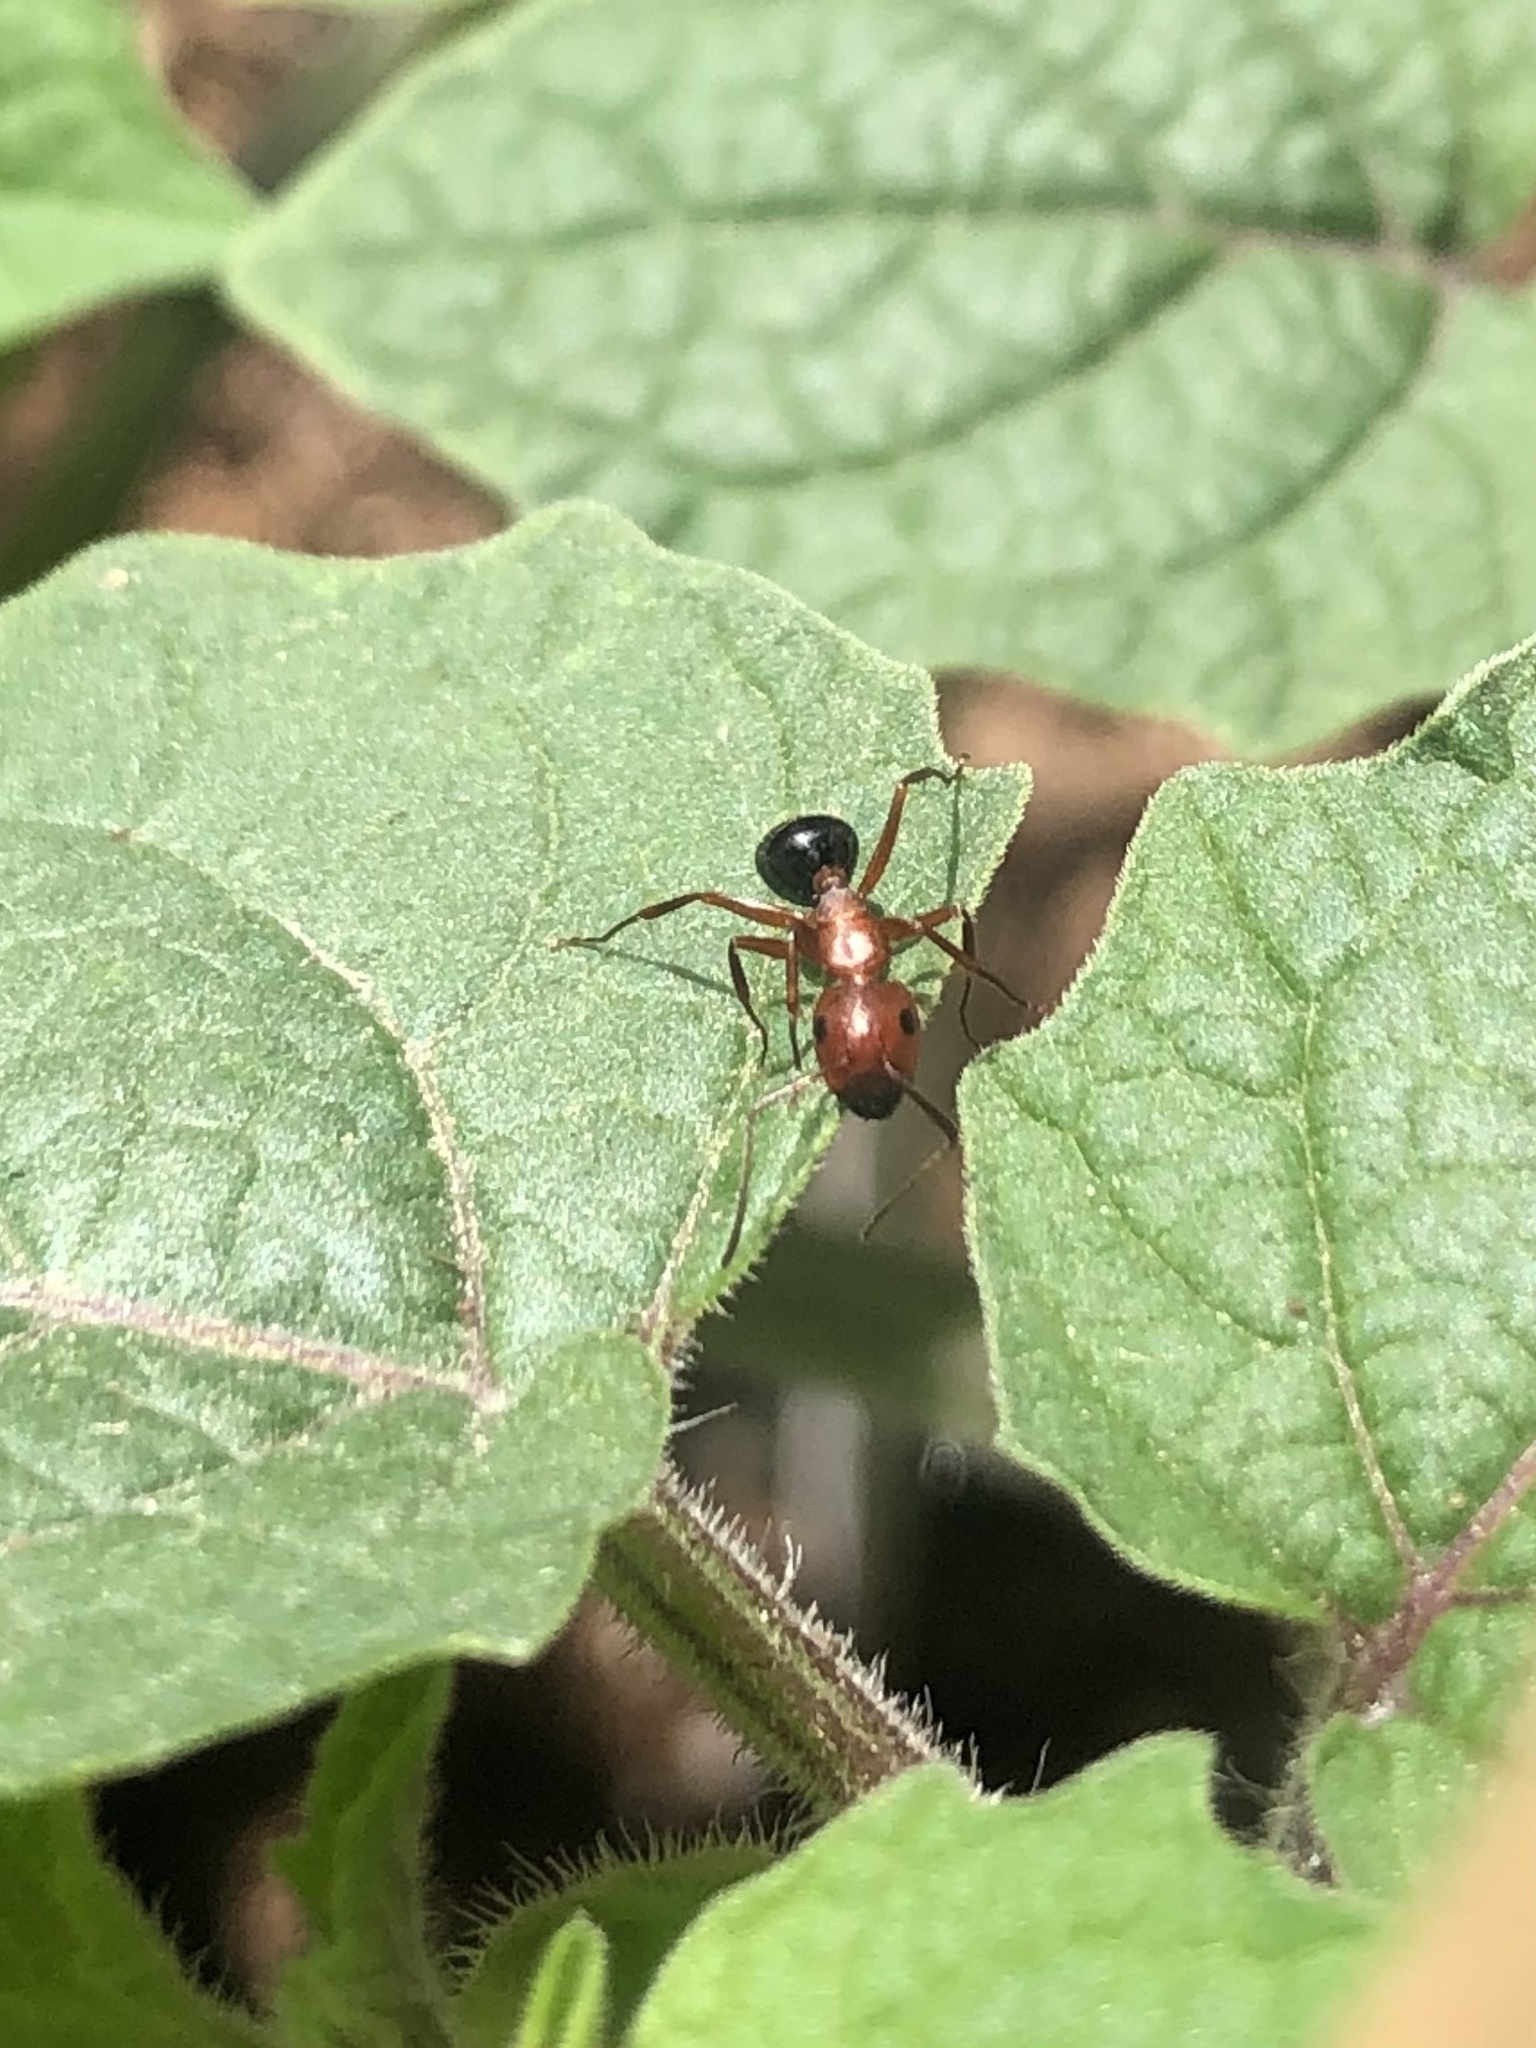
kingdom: Animalia
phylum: Arthropoda
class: Insecta
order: Hymenoptera
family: Formicidae
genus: Camponotus
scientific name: Camponotus decipiens
